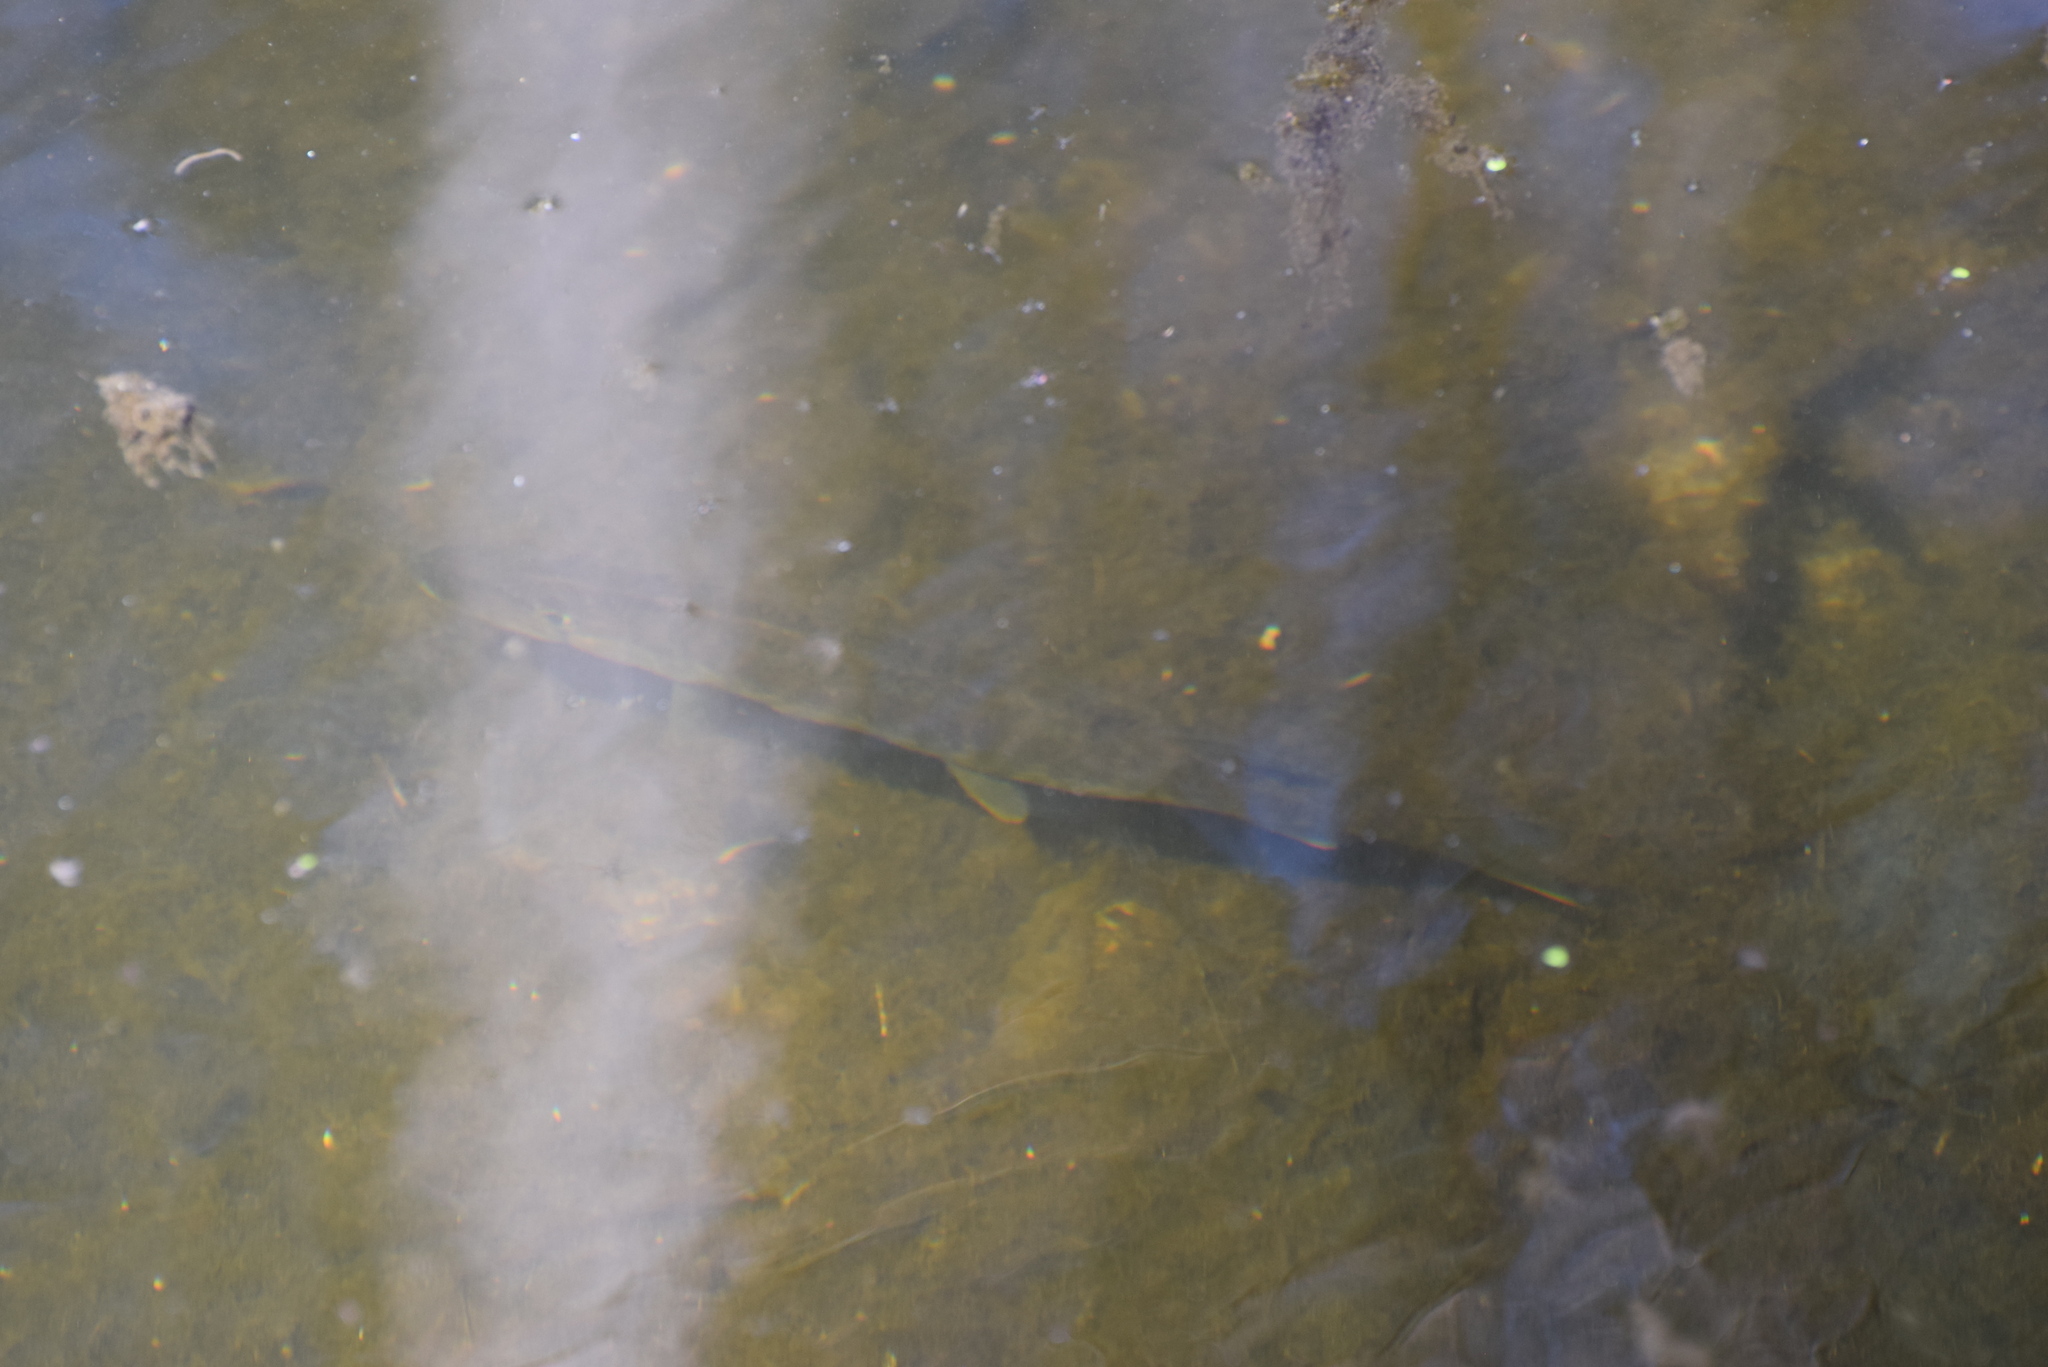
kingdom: Animalia
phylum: Chordata
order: Esociformes
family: Esocidae
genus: Esox
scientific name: Esox niger
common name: Chain pickerel
